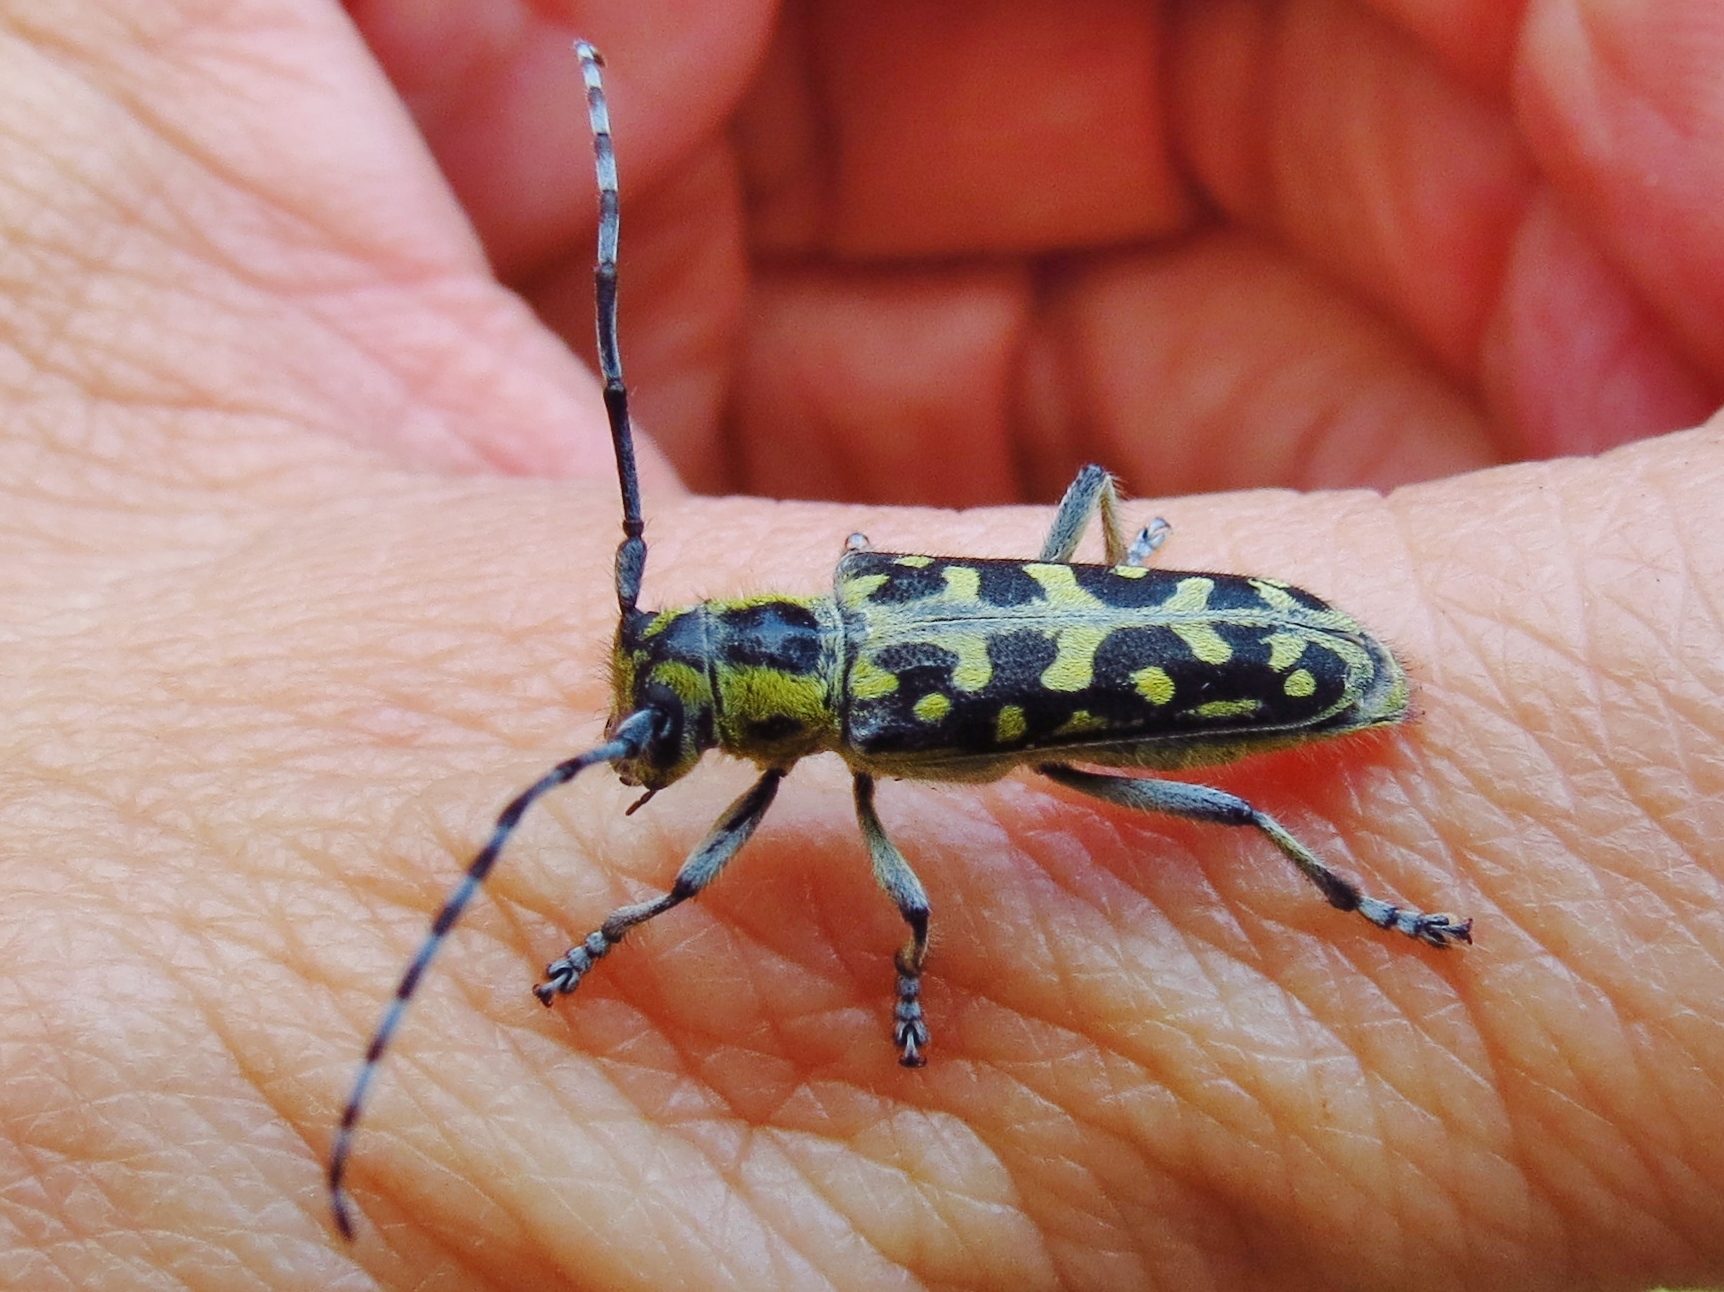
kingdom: Animalia
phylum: Arthropoda
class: Insecta
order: Coleoptera
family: Cerambycidae
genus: Saperda
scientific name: Saperda scalaris
